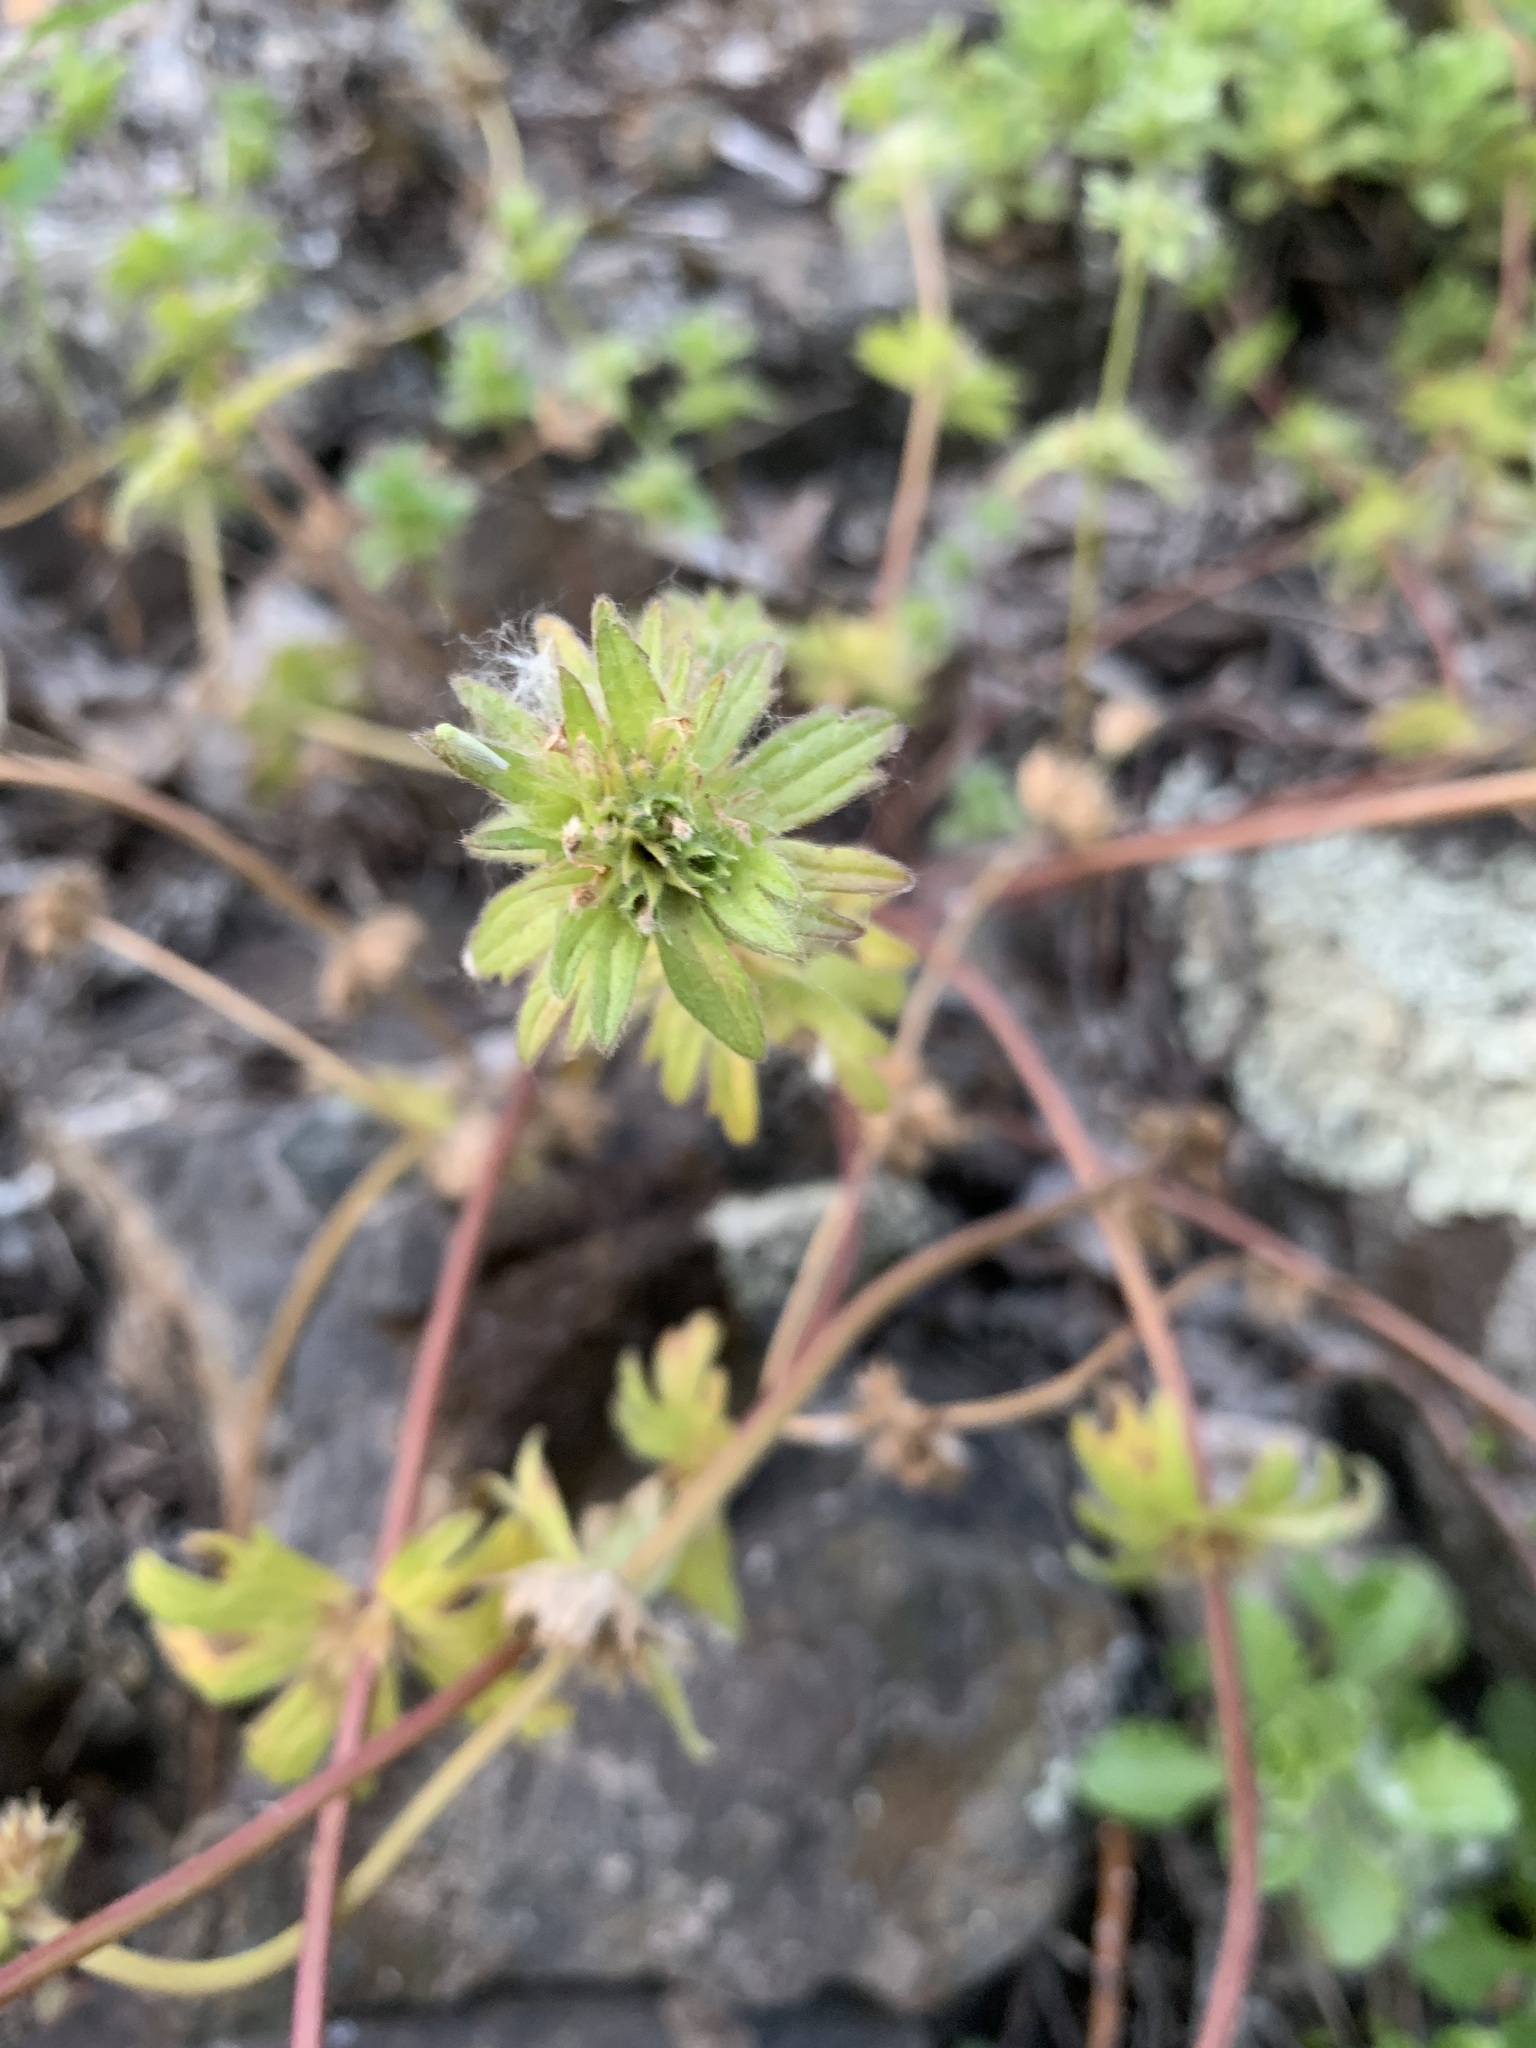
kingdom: Plantae
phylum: Tracheophyta
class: Magnoliopsida
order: Lamiales
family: Lamiaceae
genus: Lamium
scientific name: Lamium amplexicaule
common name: Henbit dead-nettle
